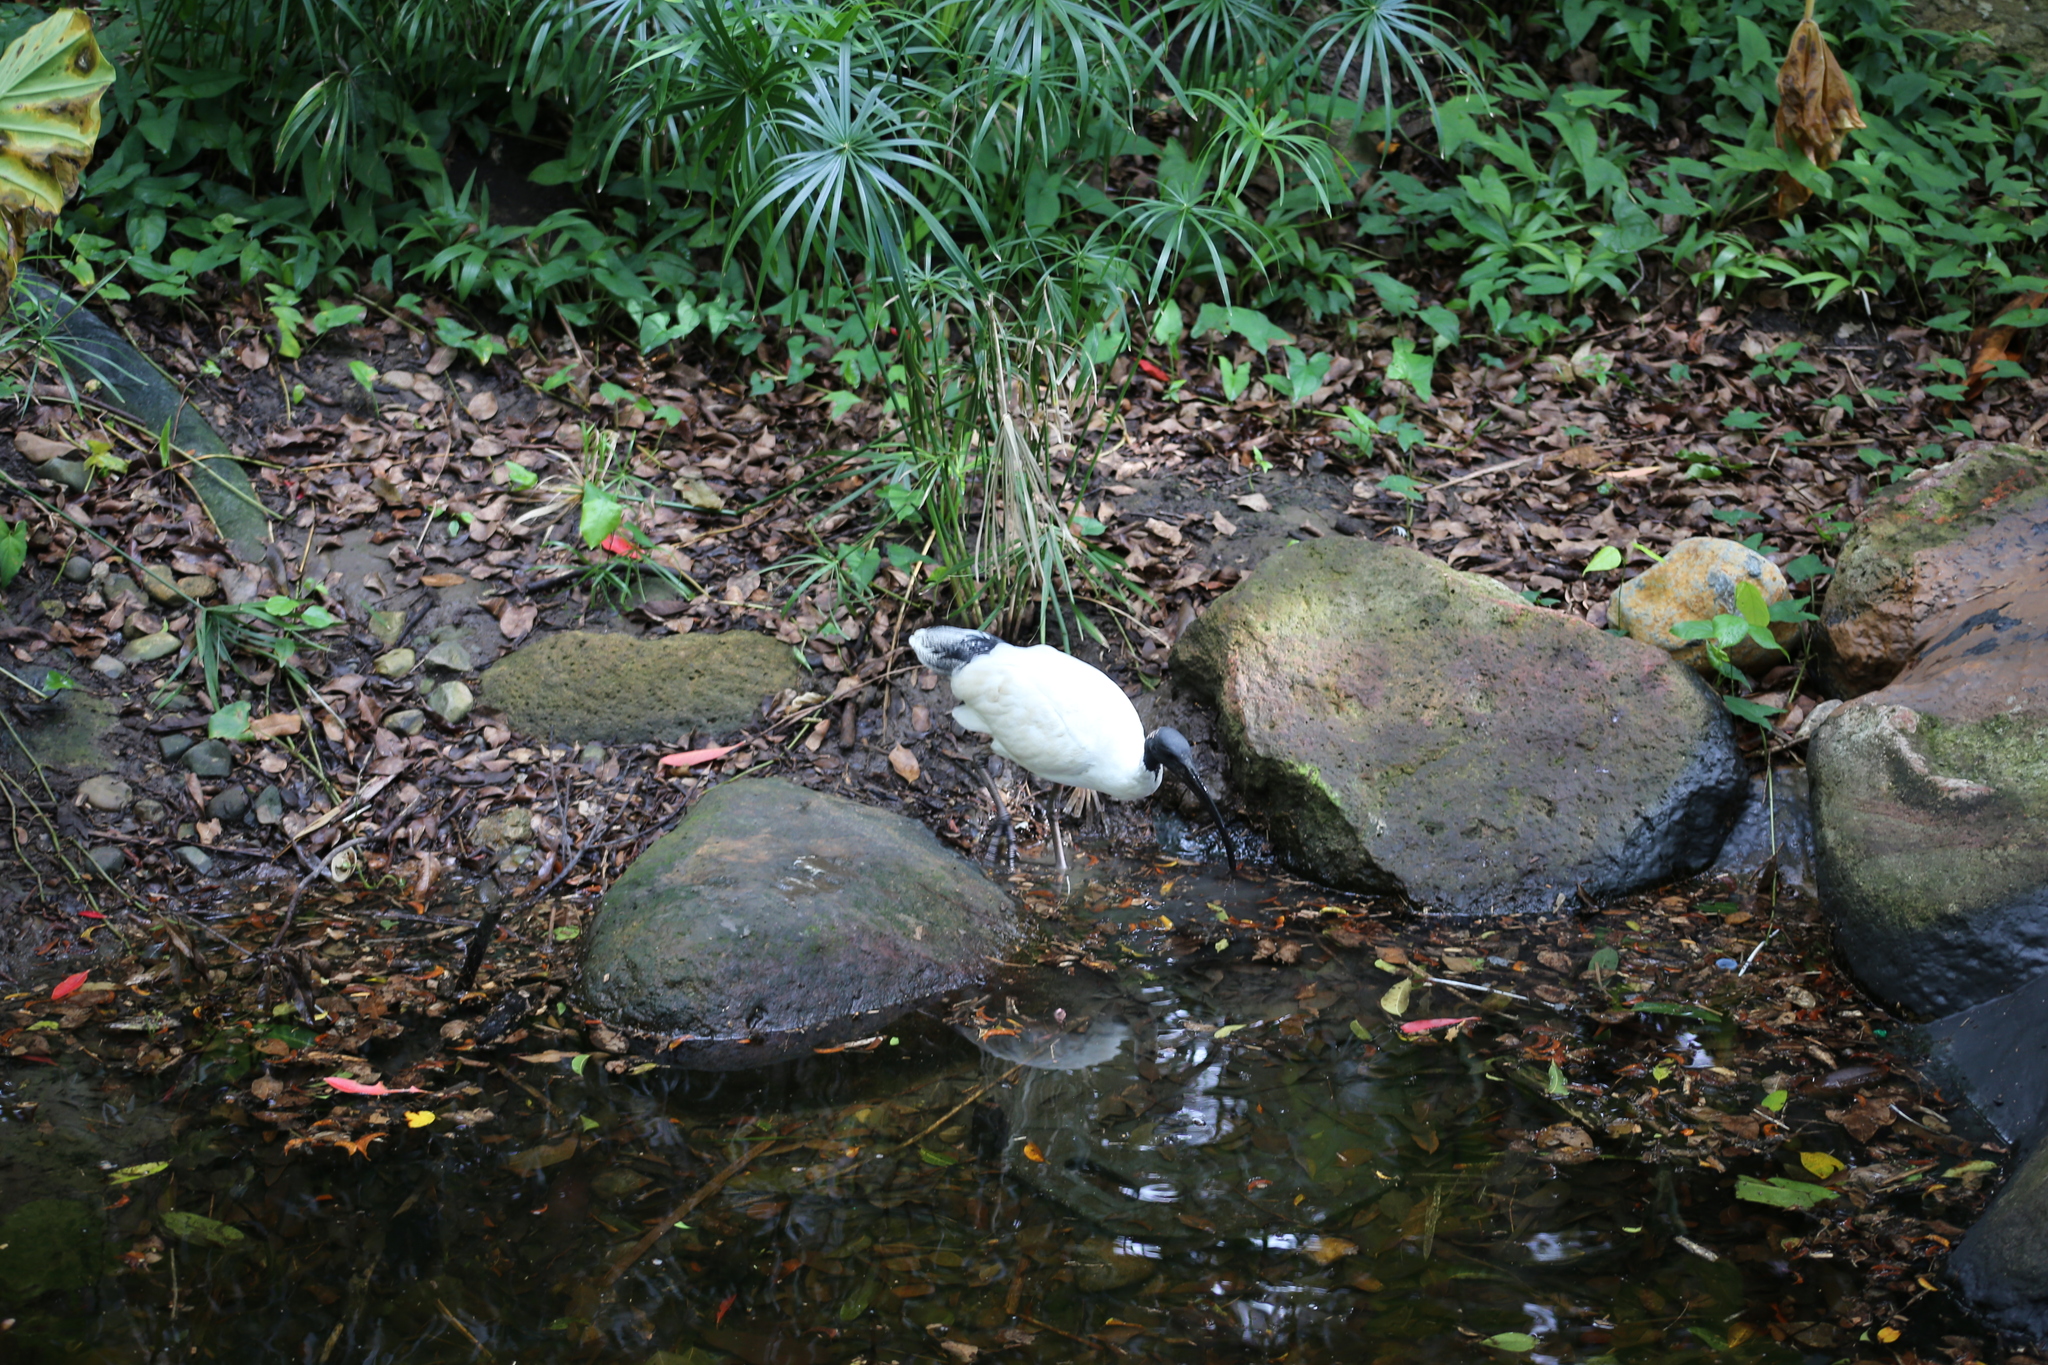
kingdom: Animalia
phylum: Chordata
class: Aves
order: Pelecaniformes
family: Threskiornithidae
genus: Threskiornis
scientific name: Threskiornis molucca
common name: Australian white ibis
